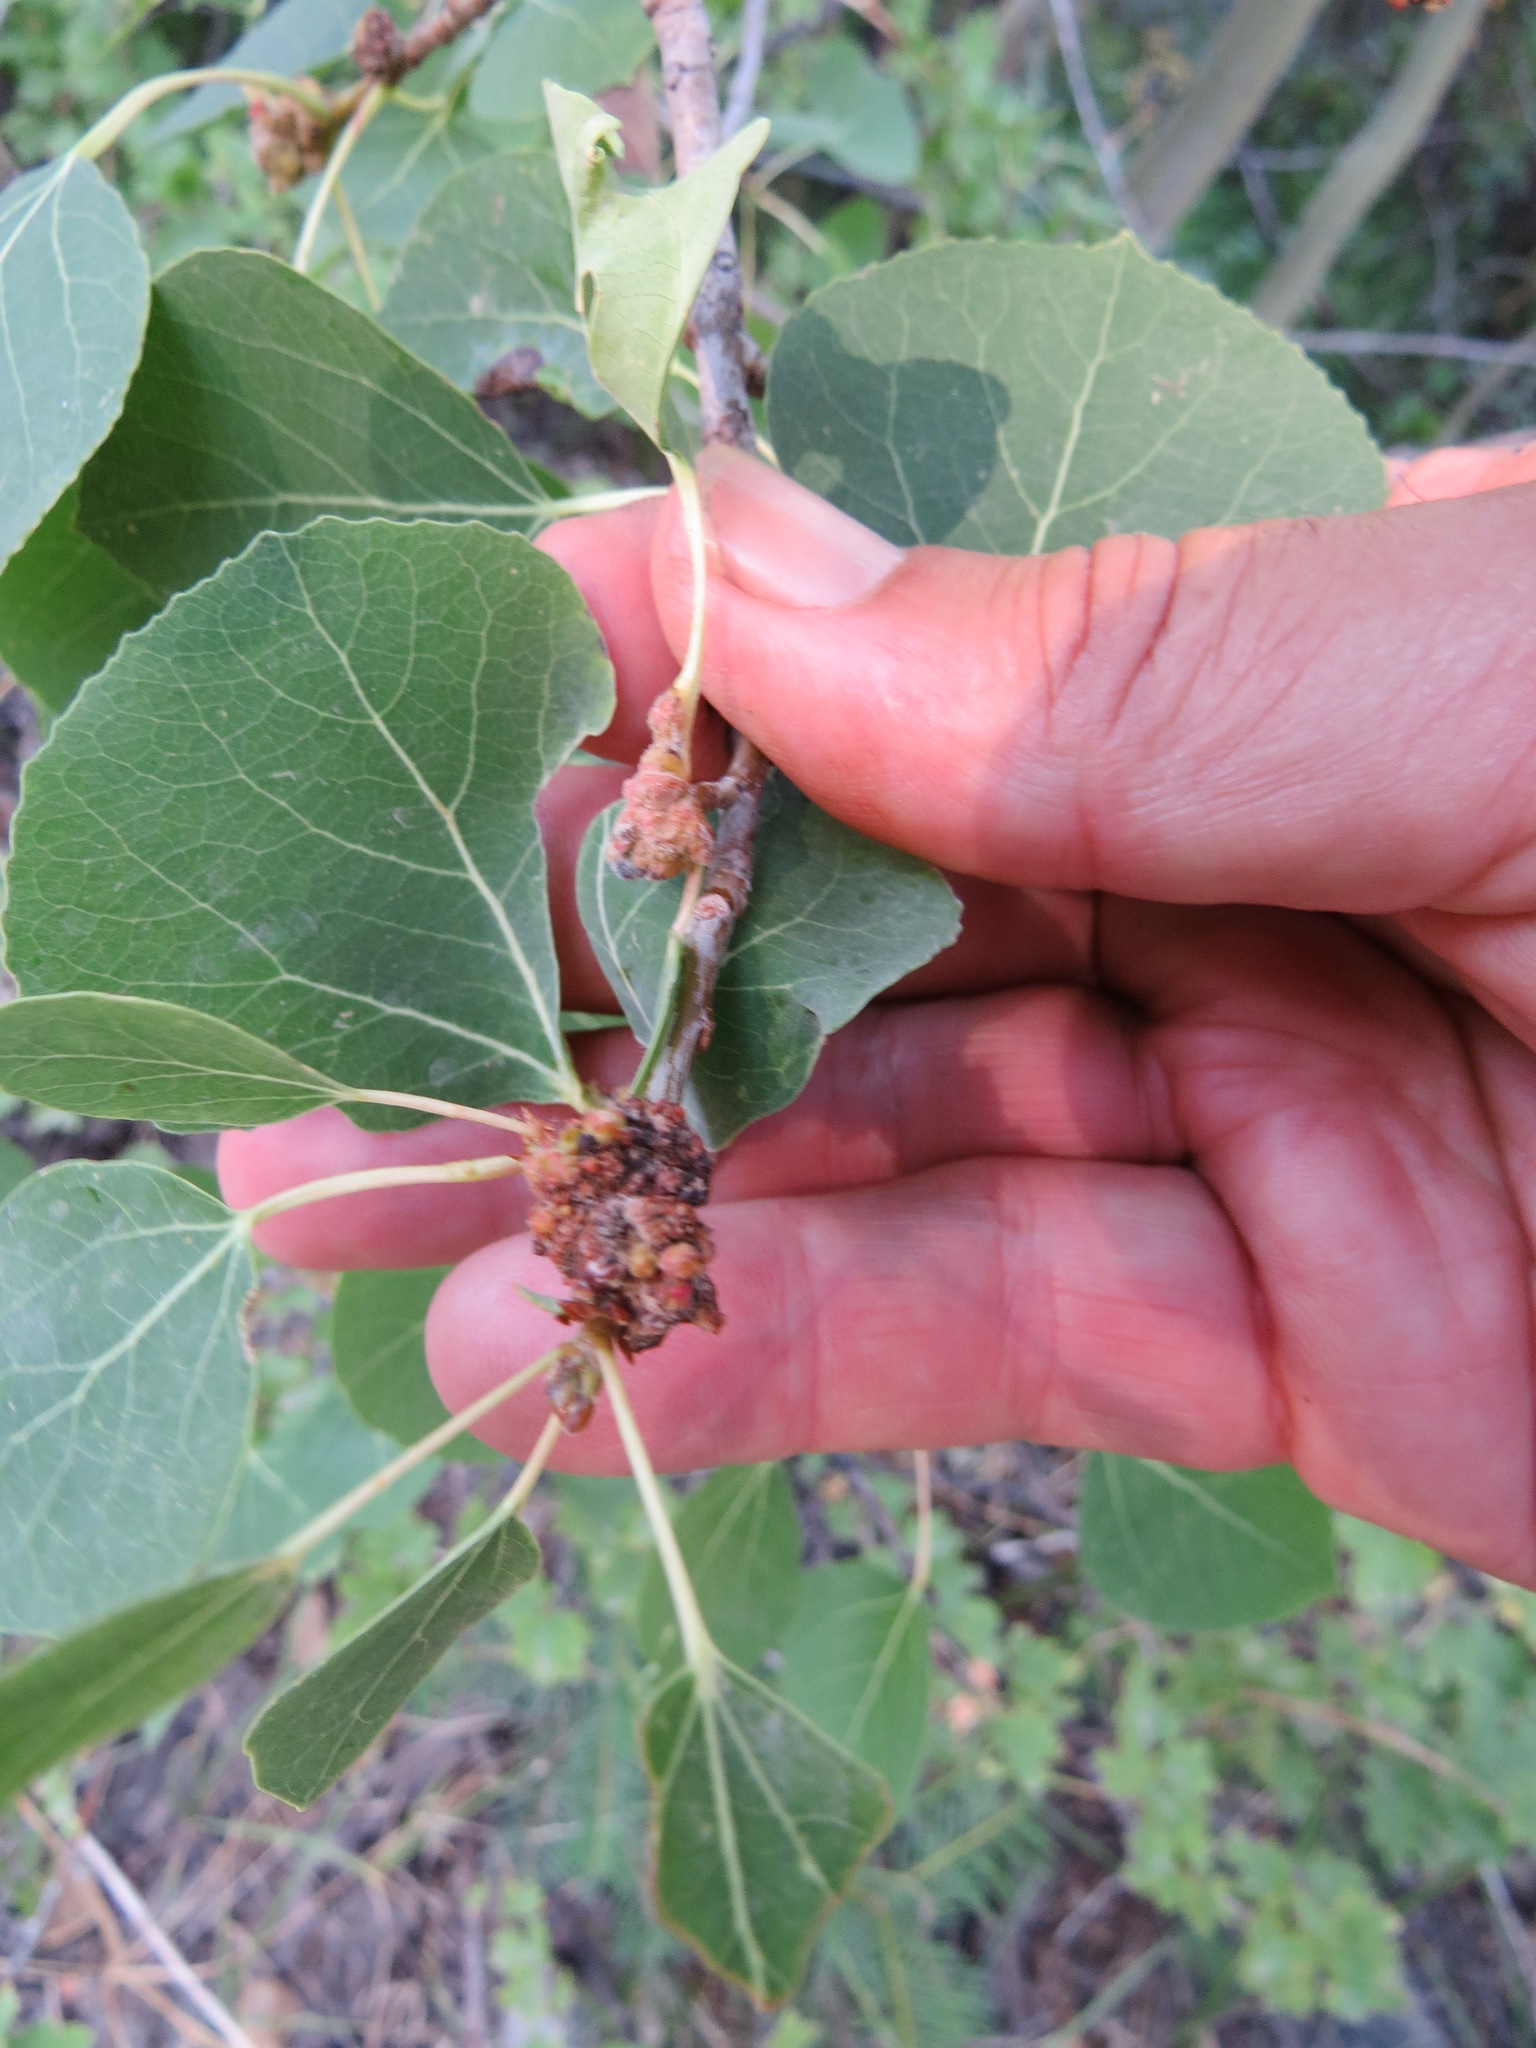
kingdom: Animalia
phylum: Arthropoda
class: Arachnida
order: Trombidiformes
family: Eriophyidae
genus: Aceria
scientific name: Aceria
